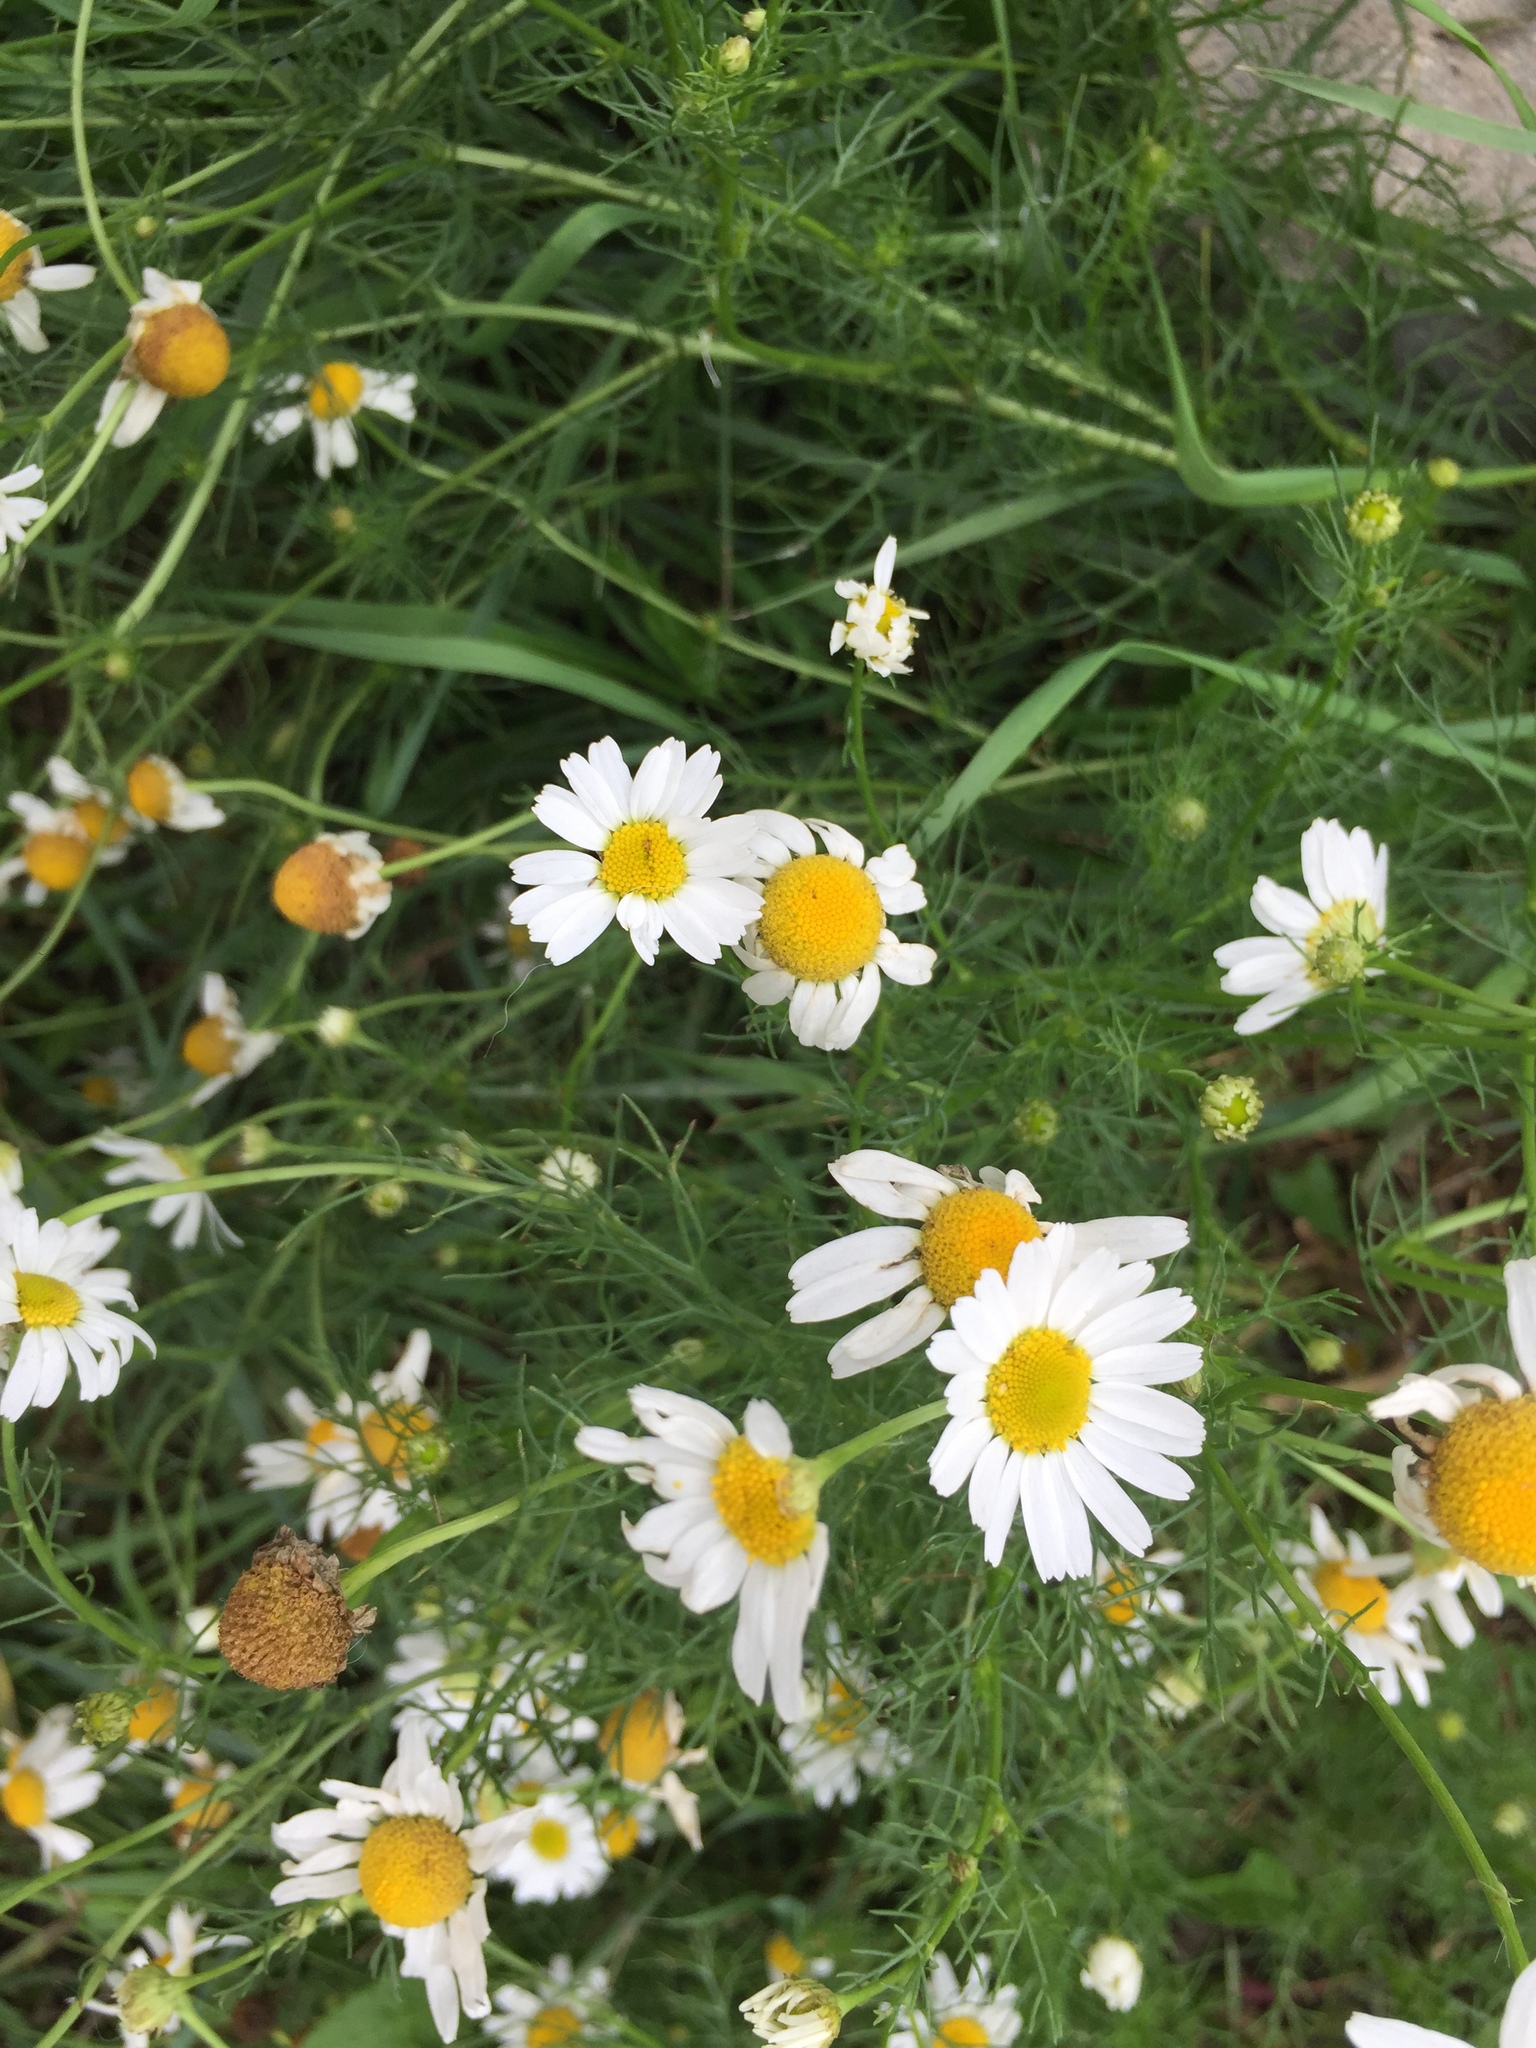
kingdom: Plantae
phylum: Tracheophyta
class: Magnoliopsida
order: Asterales
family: Asteraceae
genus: Tripleurospermum
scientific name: Tripleurospermum inodorum
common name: Scentless mayweed
